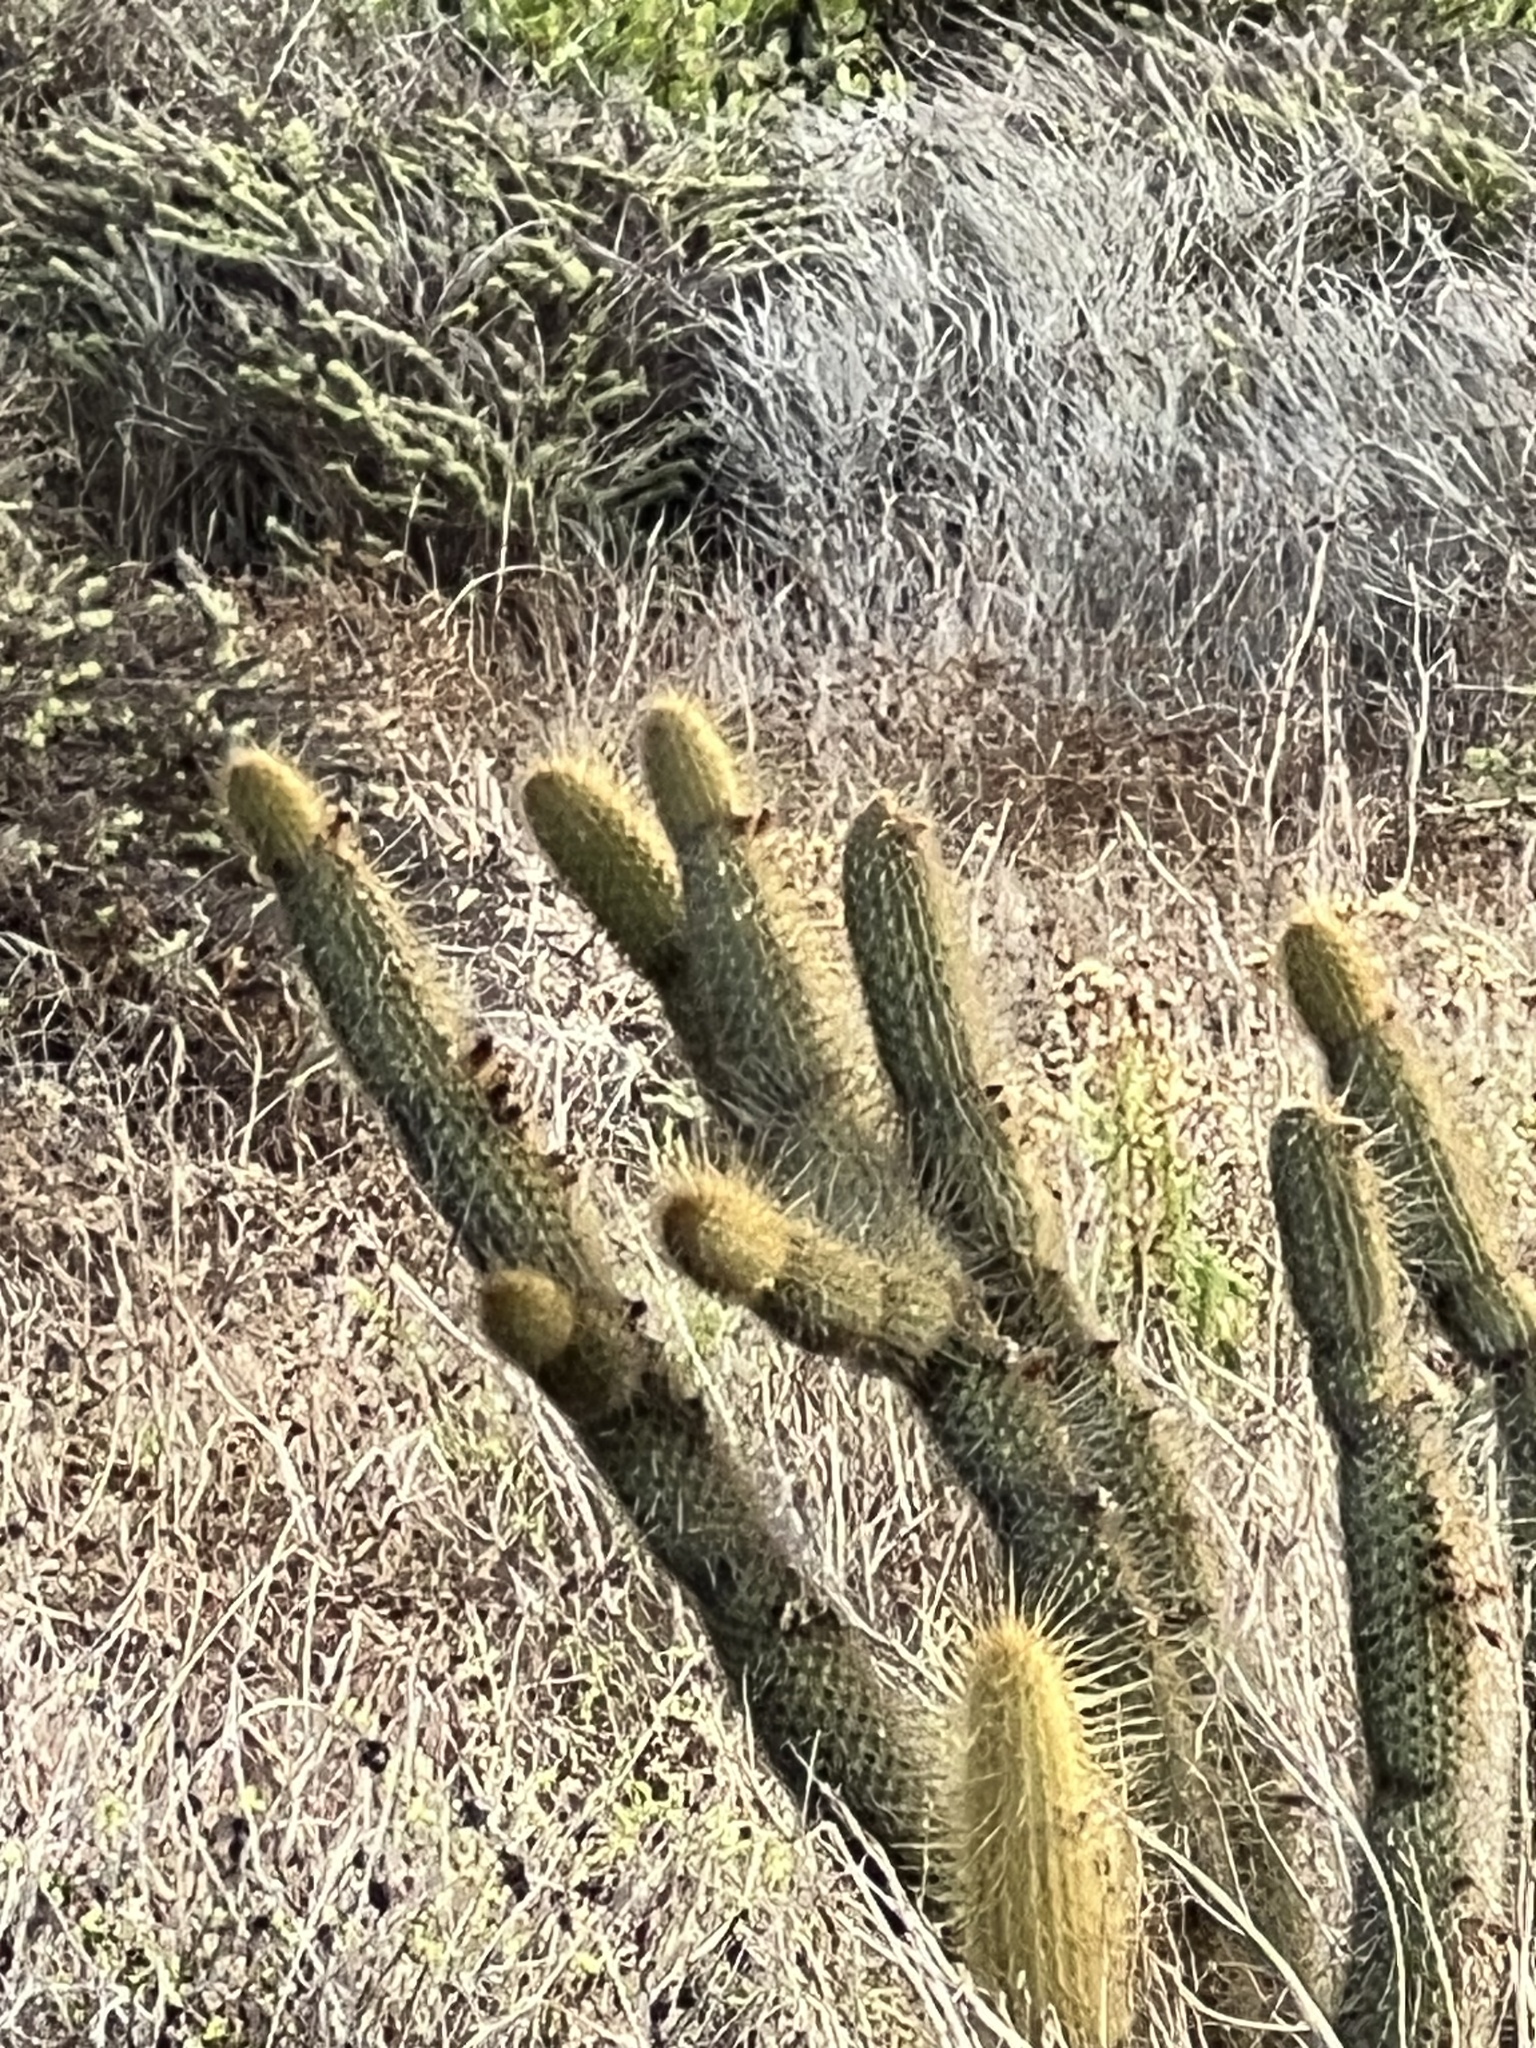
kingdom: Plantae
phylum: Tracheophyta
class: Magnoliopsida
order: Caryophyllales
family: Cactaceae
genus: Bergerocactus
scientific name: Bergerocactus emoryi
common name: Golden snakecactus
